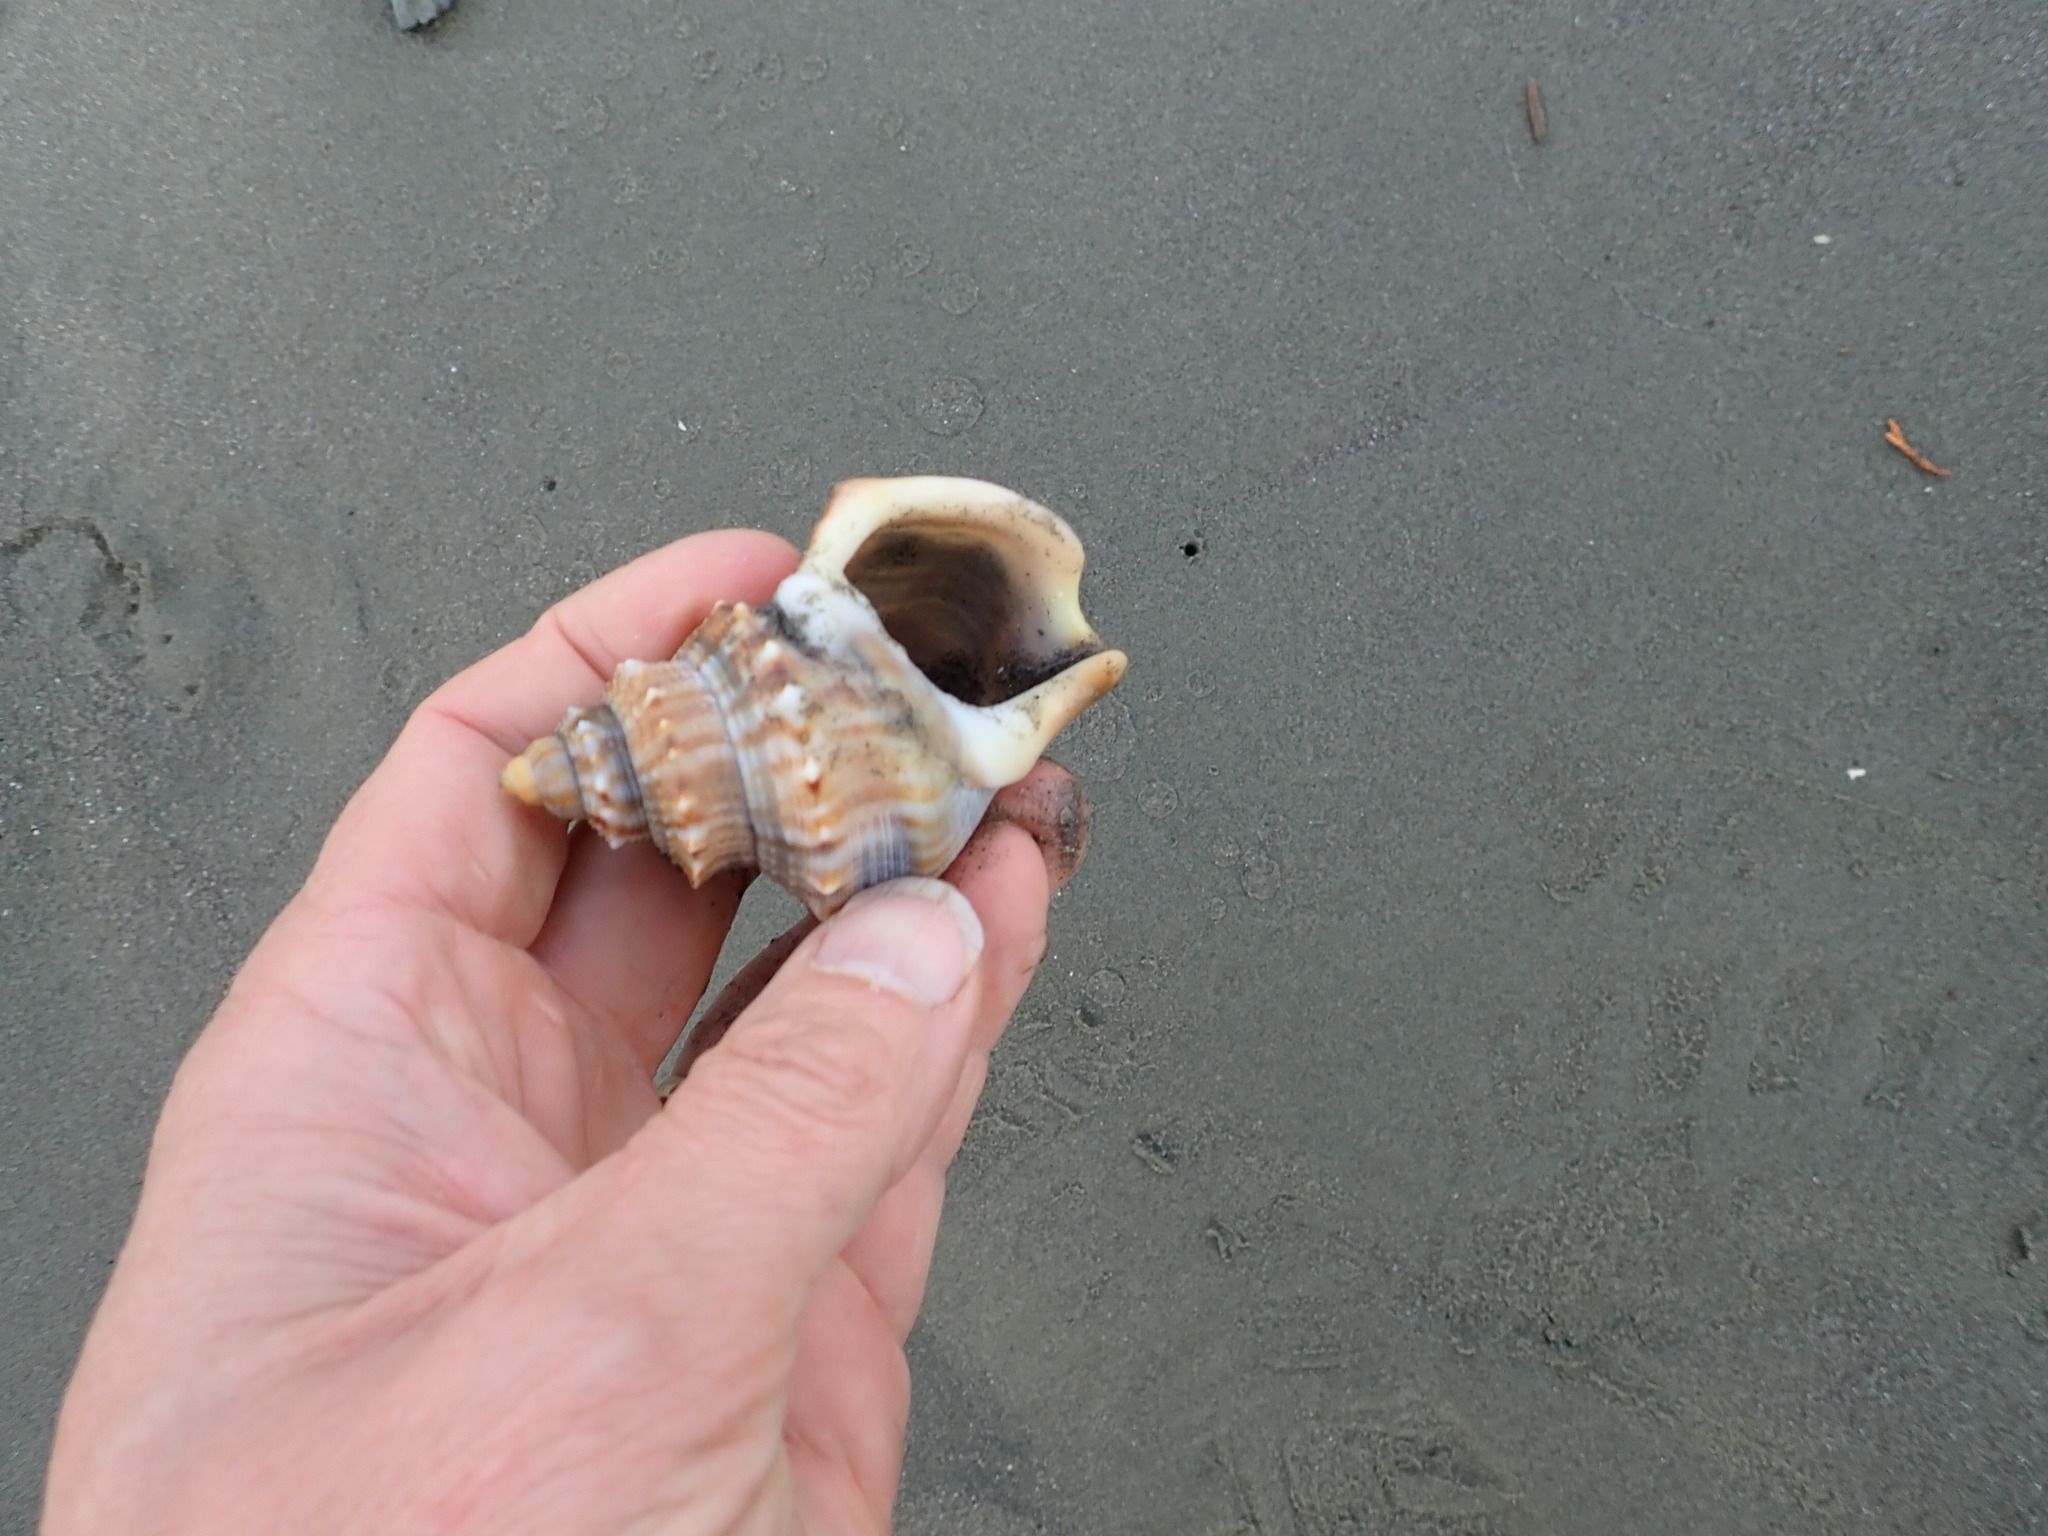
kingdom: Animalia
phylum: Mollusca
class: Gastropoda
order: Littorinimorpha
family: Struthiolariidae
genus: Struthiolaria
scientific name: Struthiolaria papulosa
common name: Large ostrich foot
